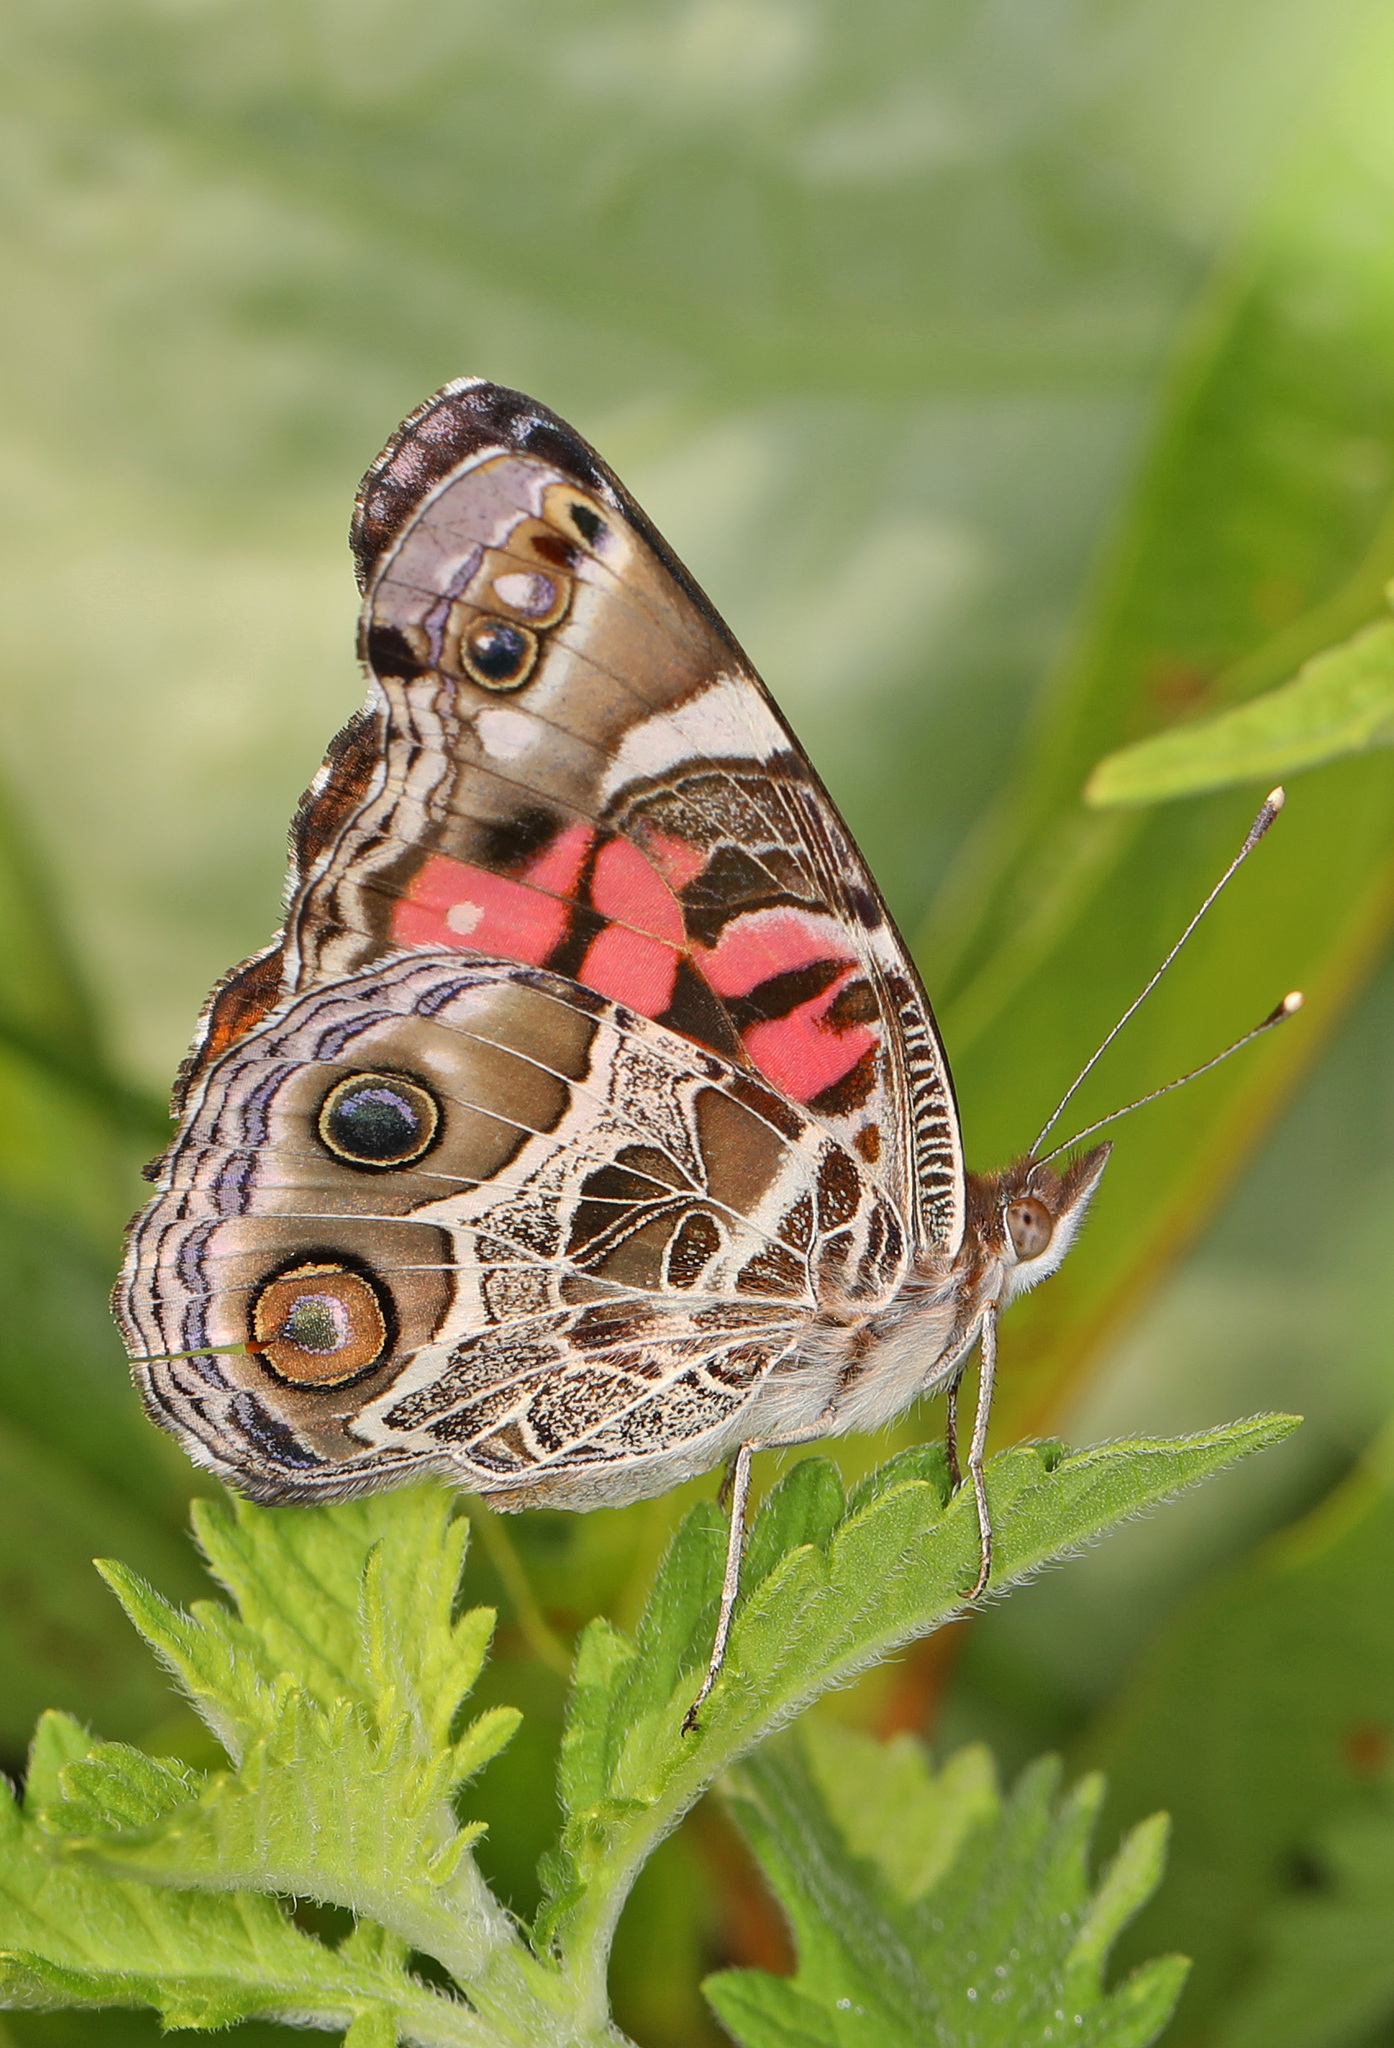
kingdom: Animalia
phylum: Arthropoda
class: Insecta
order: Lepidoptera
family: Nymphalidae
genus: Vanessa
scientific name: Vanessa virginiensis
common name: American lady
